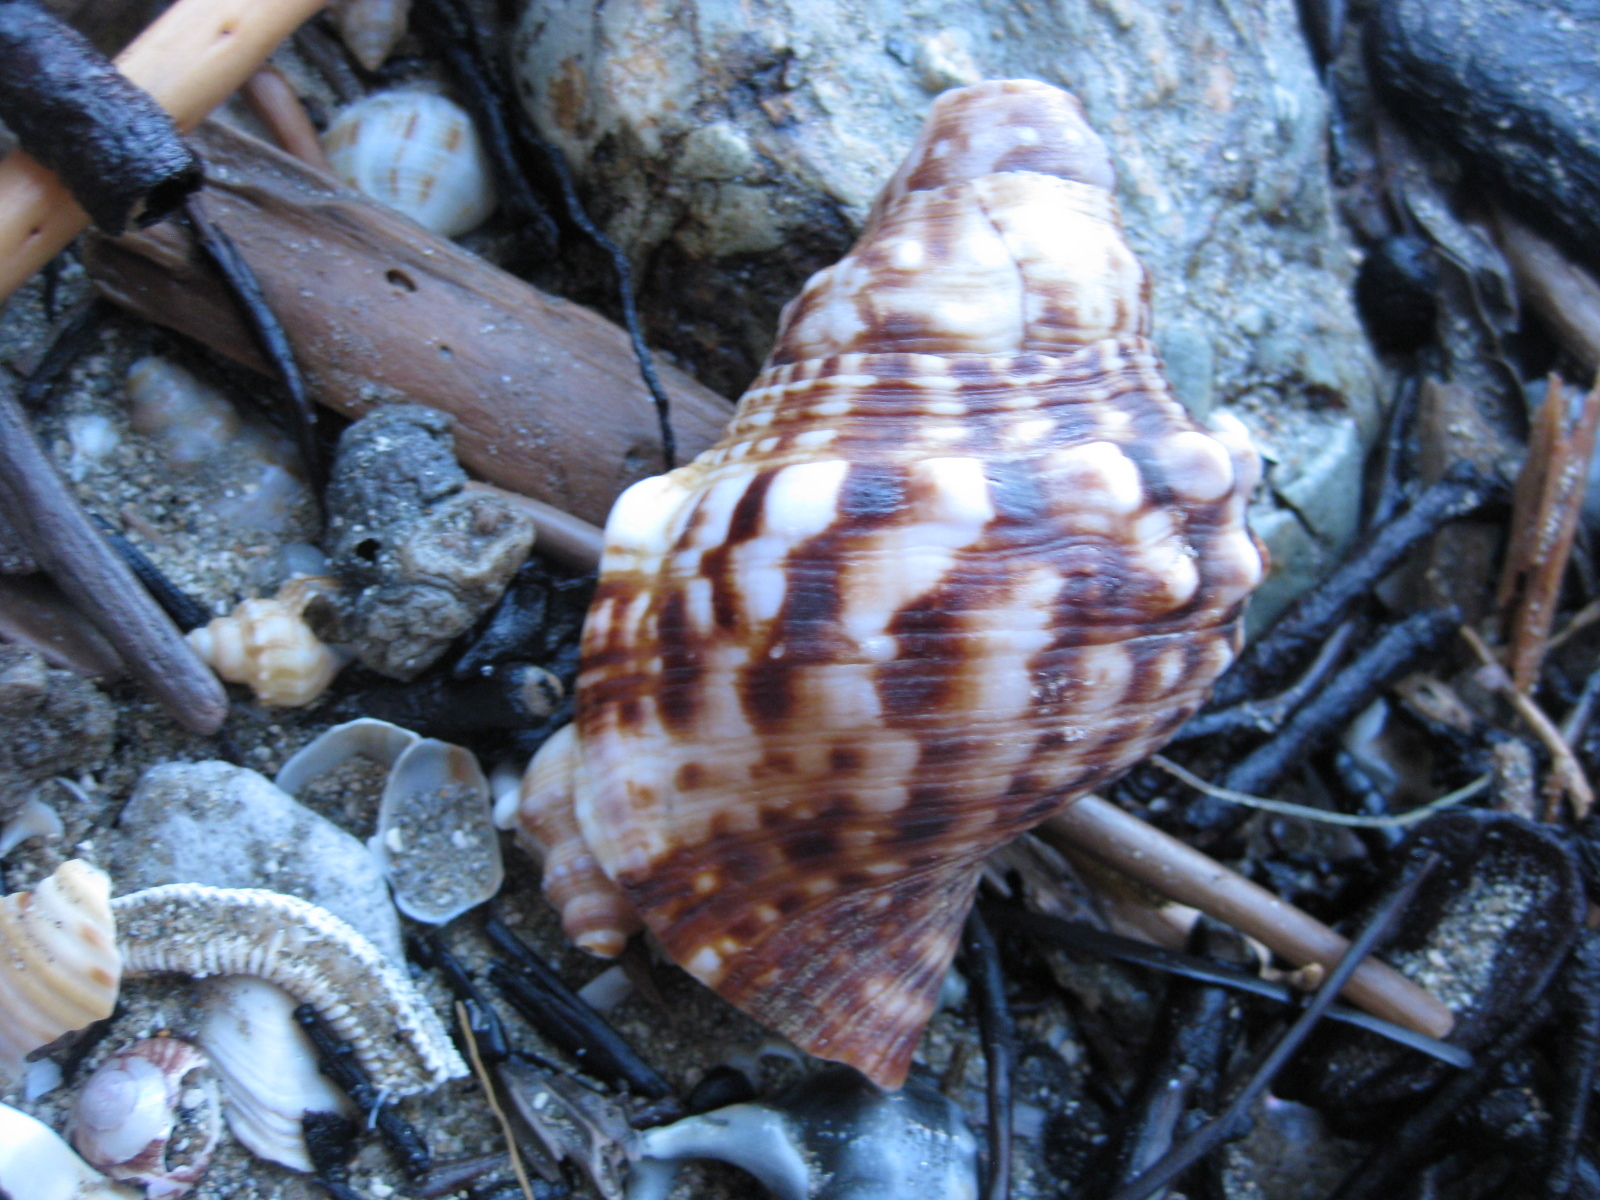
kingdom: Animalia
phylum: Mollusca
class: Gastropoda
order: Littorinimorpha
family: Charoniidae
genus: Charonia
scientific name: Charonia lampas
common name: Knobbed triton
